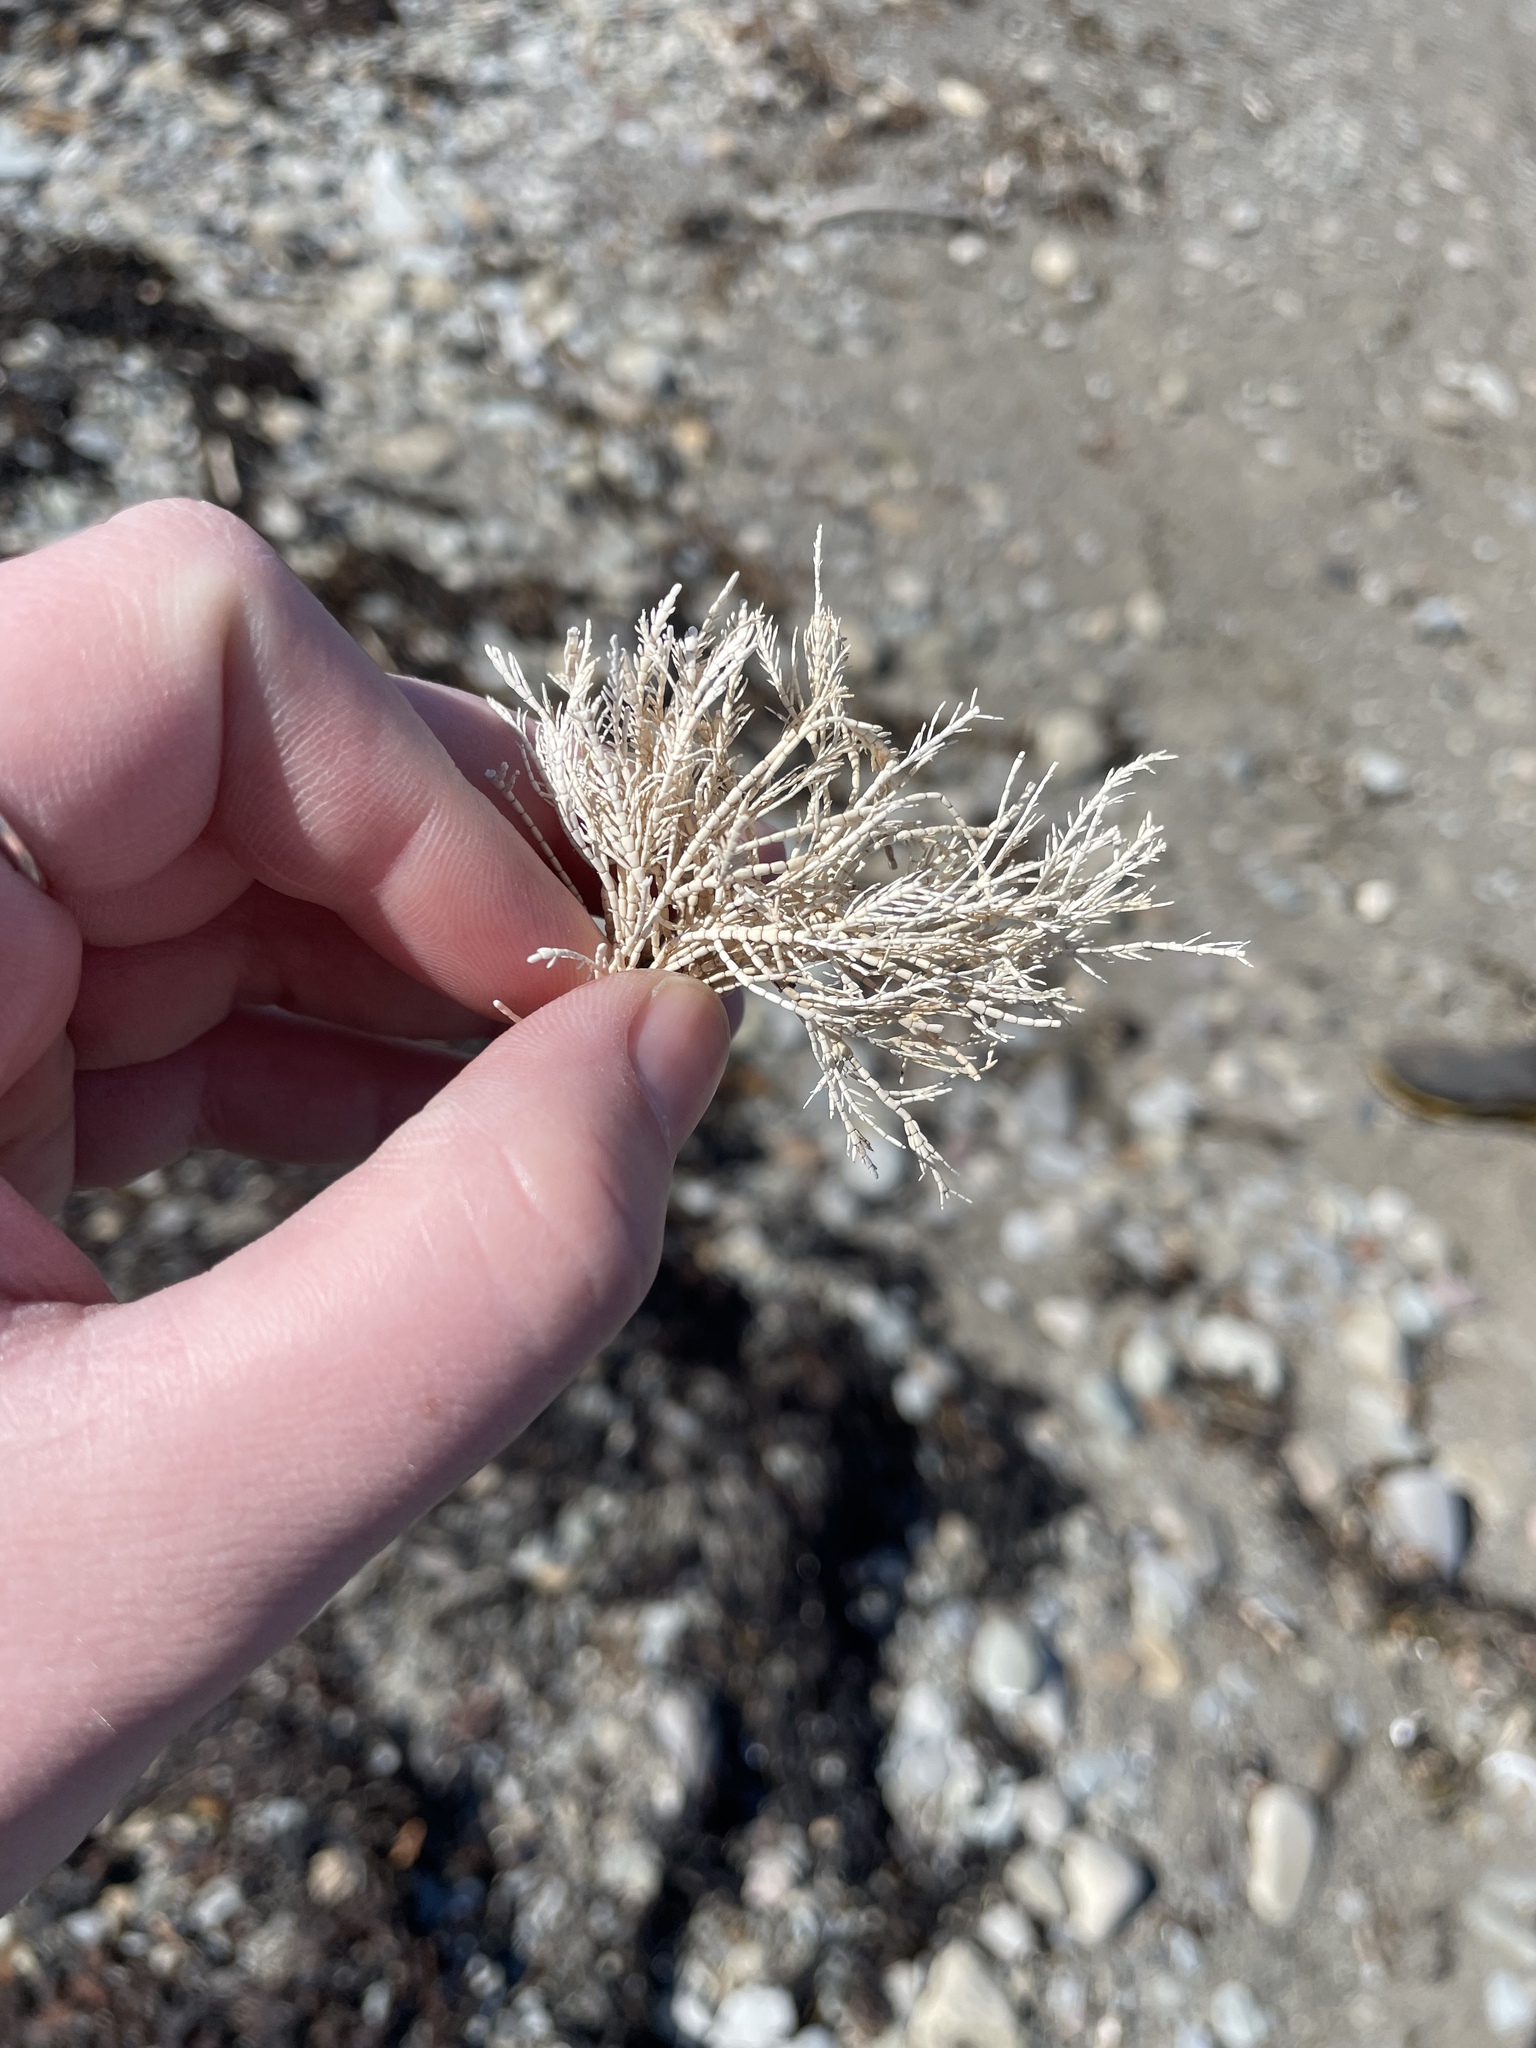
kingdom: Plantae
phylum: Rhodophyta
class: Florideophyceae
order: Corallinales
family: Corallinaceae
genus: Corallina
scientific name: Corallina officinalis
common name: Coral weed
